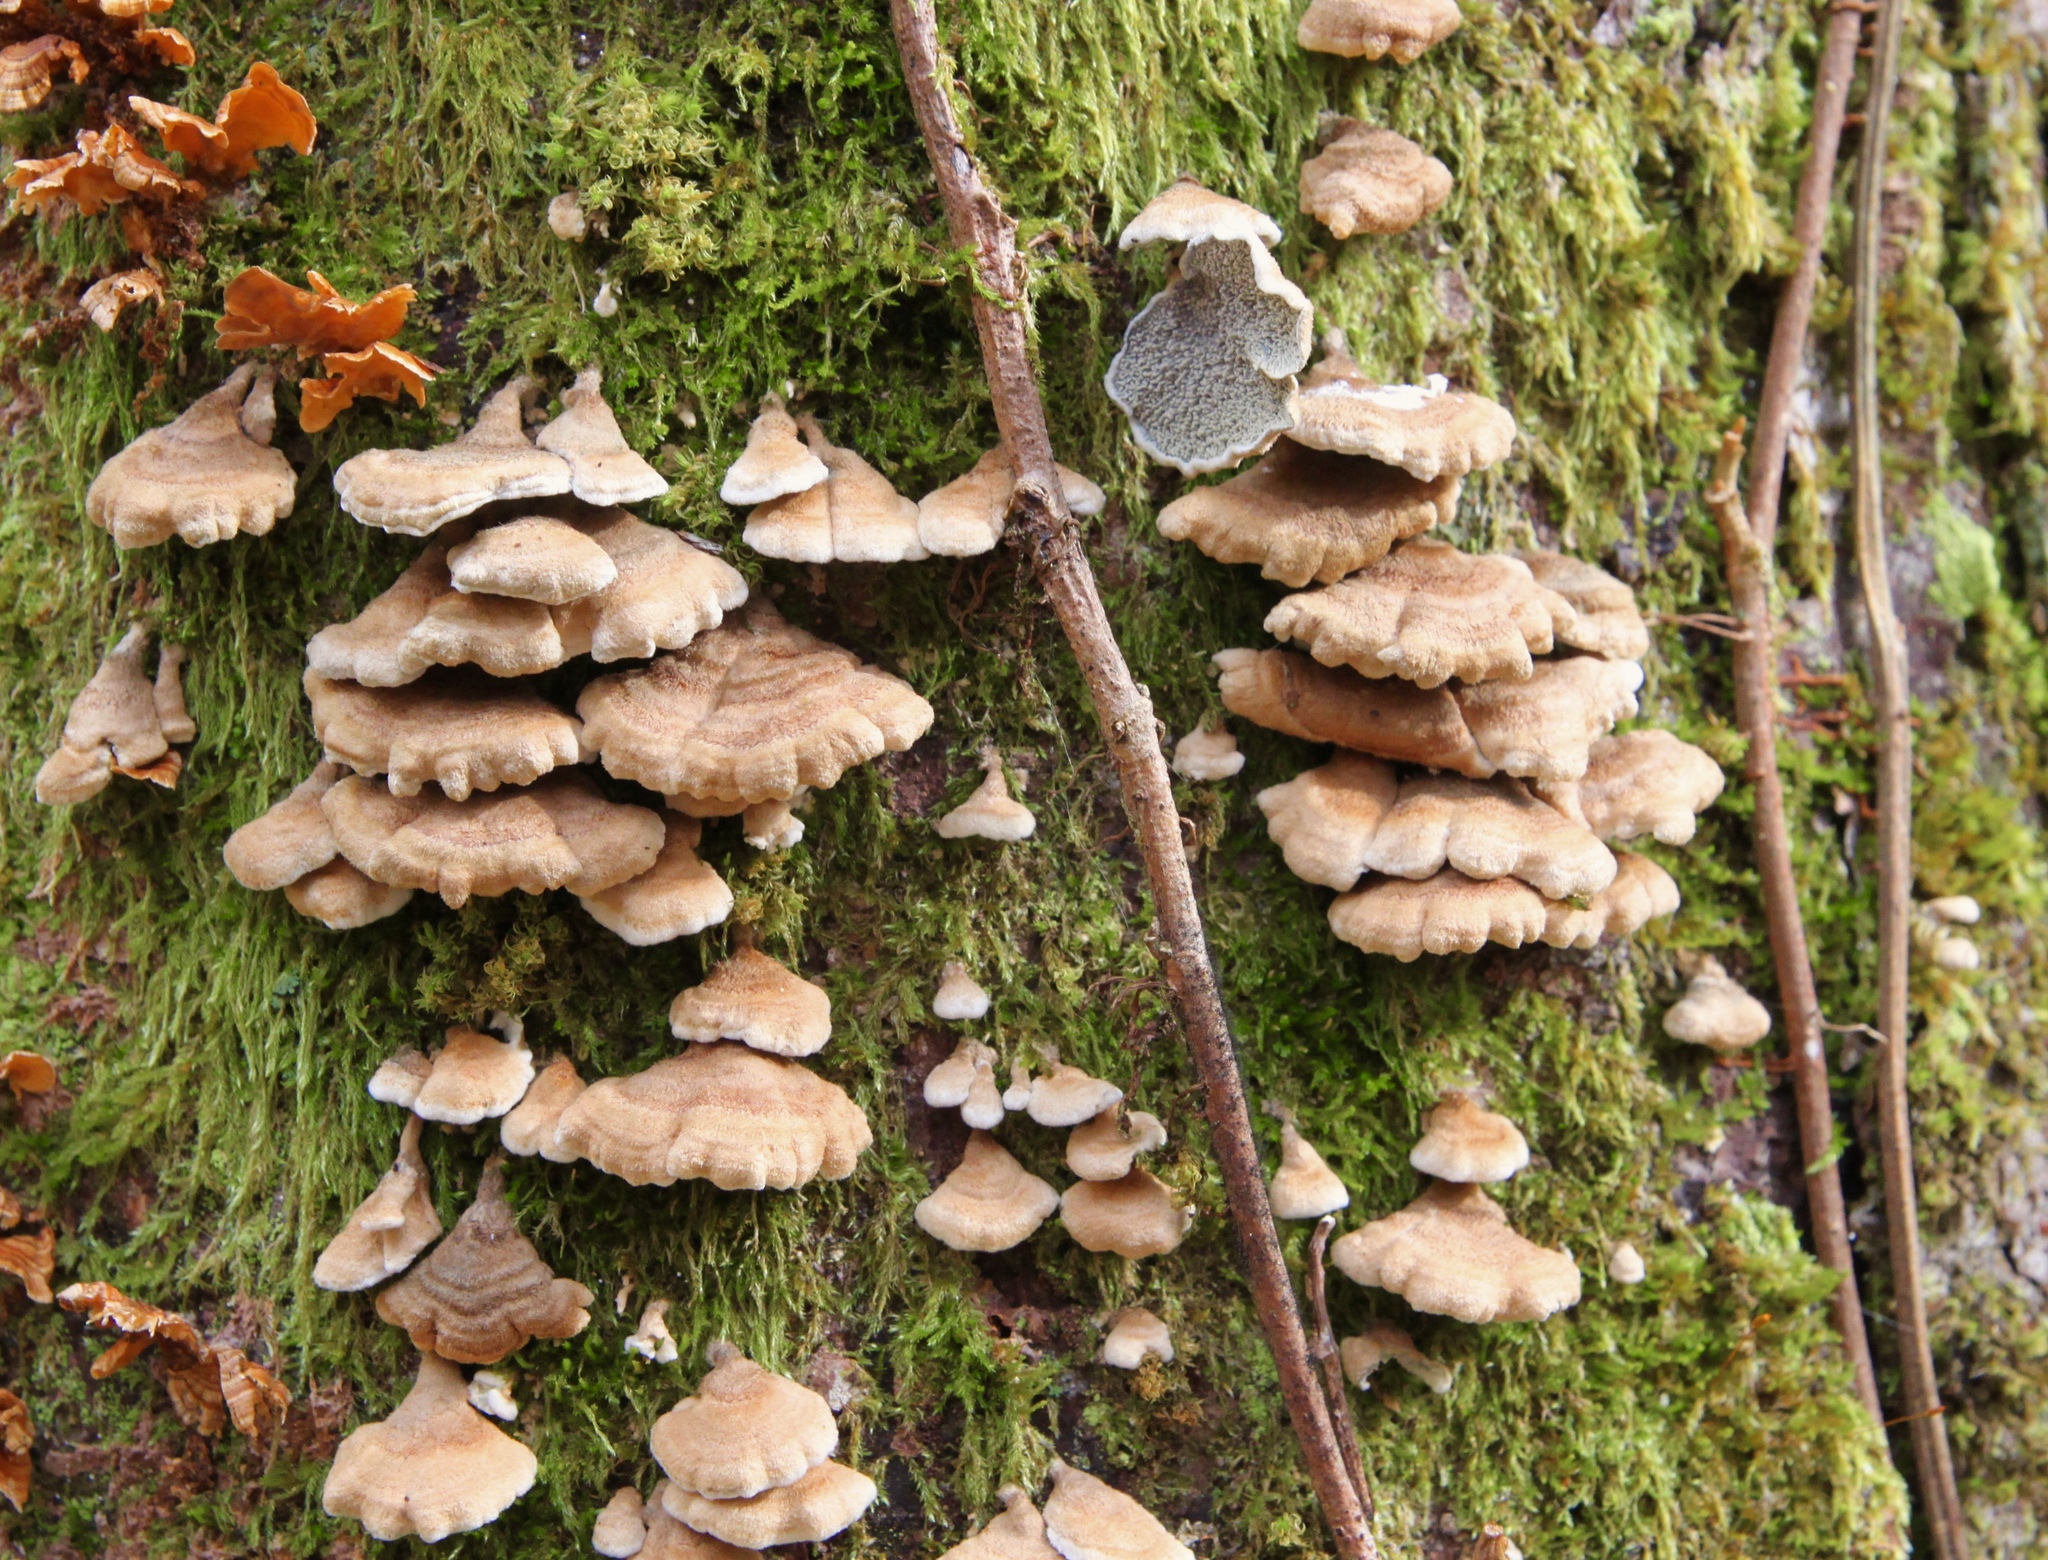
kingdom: Fungi
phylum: Basidiomycota
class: Agaricomycetes
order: Amylocorticiales
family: Amylocorticiaceae
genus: Plicaturopsis
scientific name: Plicaturopsis crispa
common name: Crimped gill
